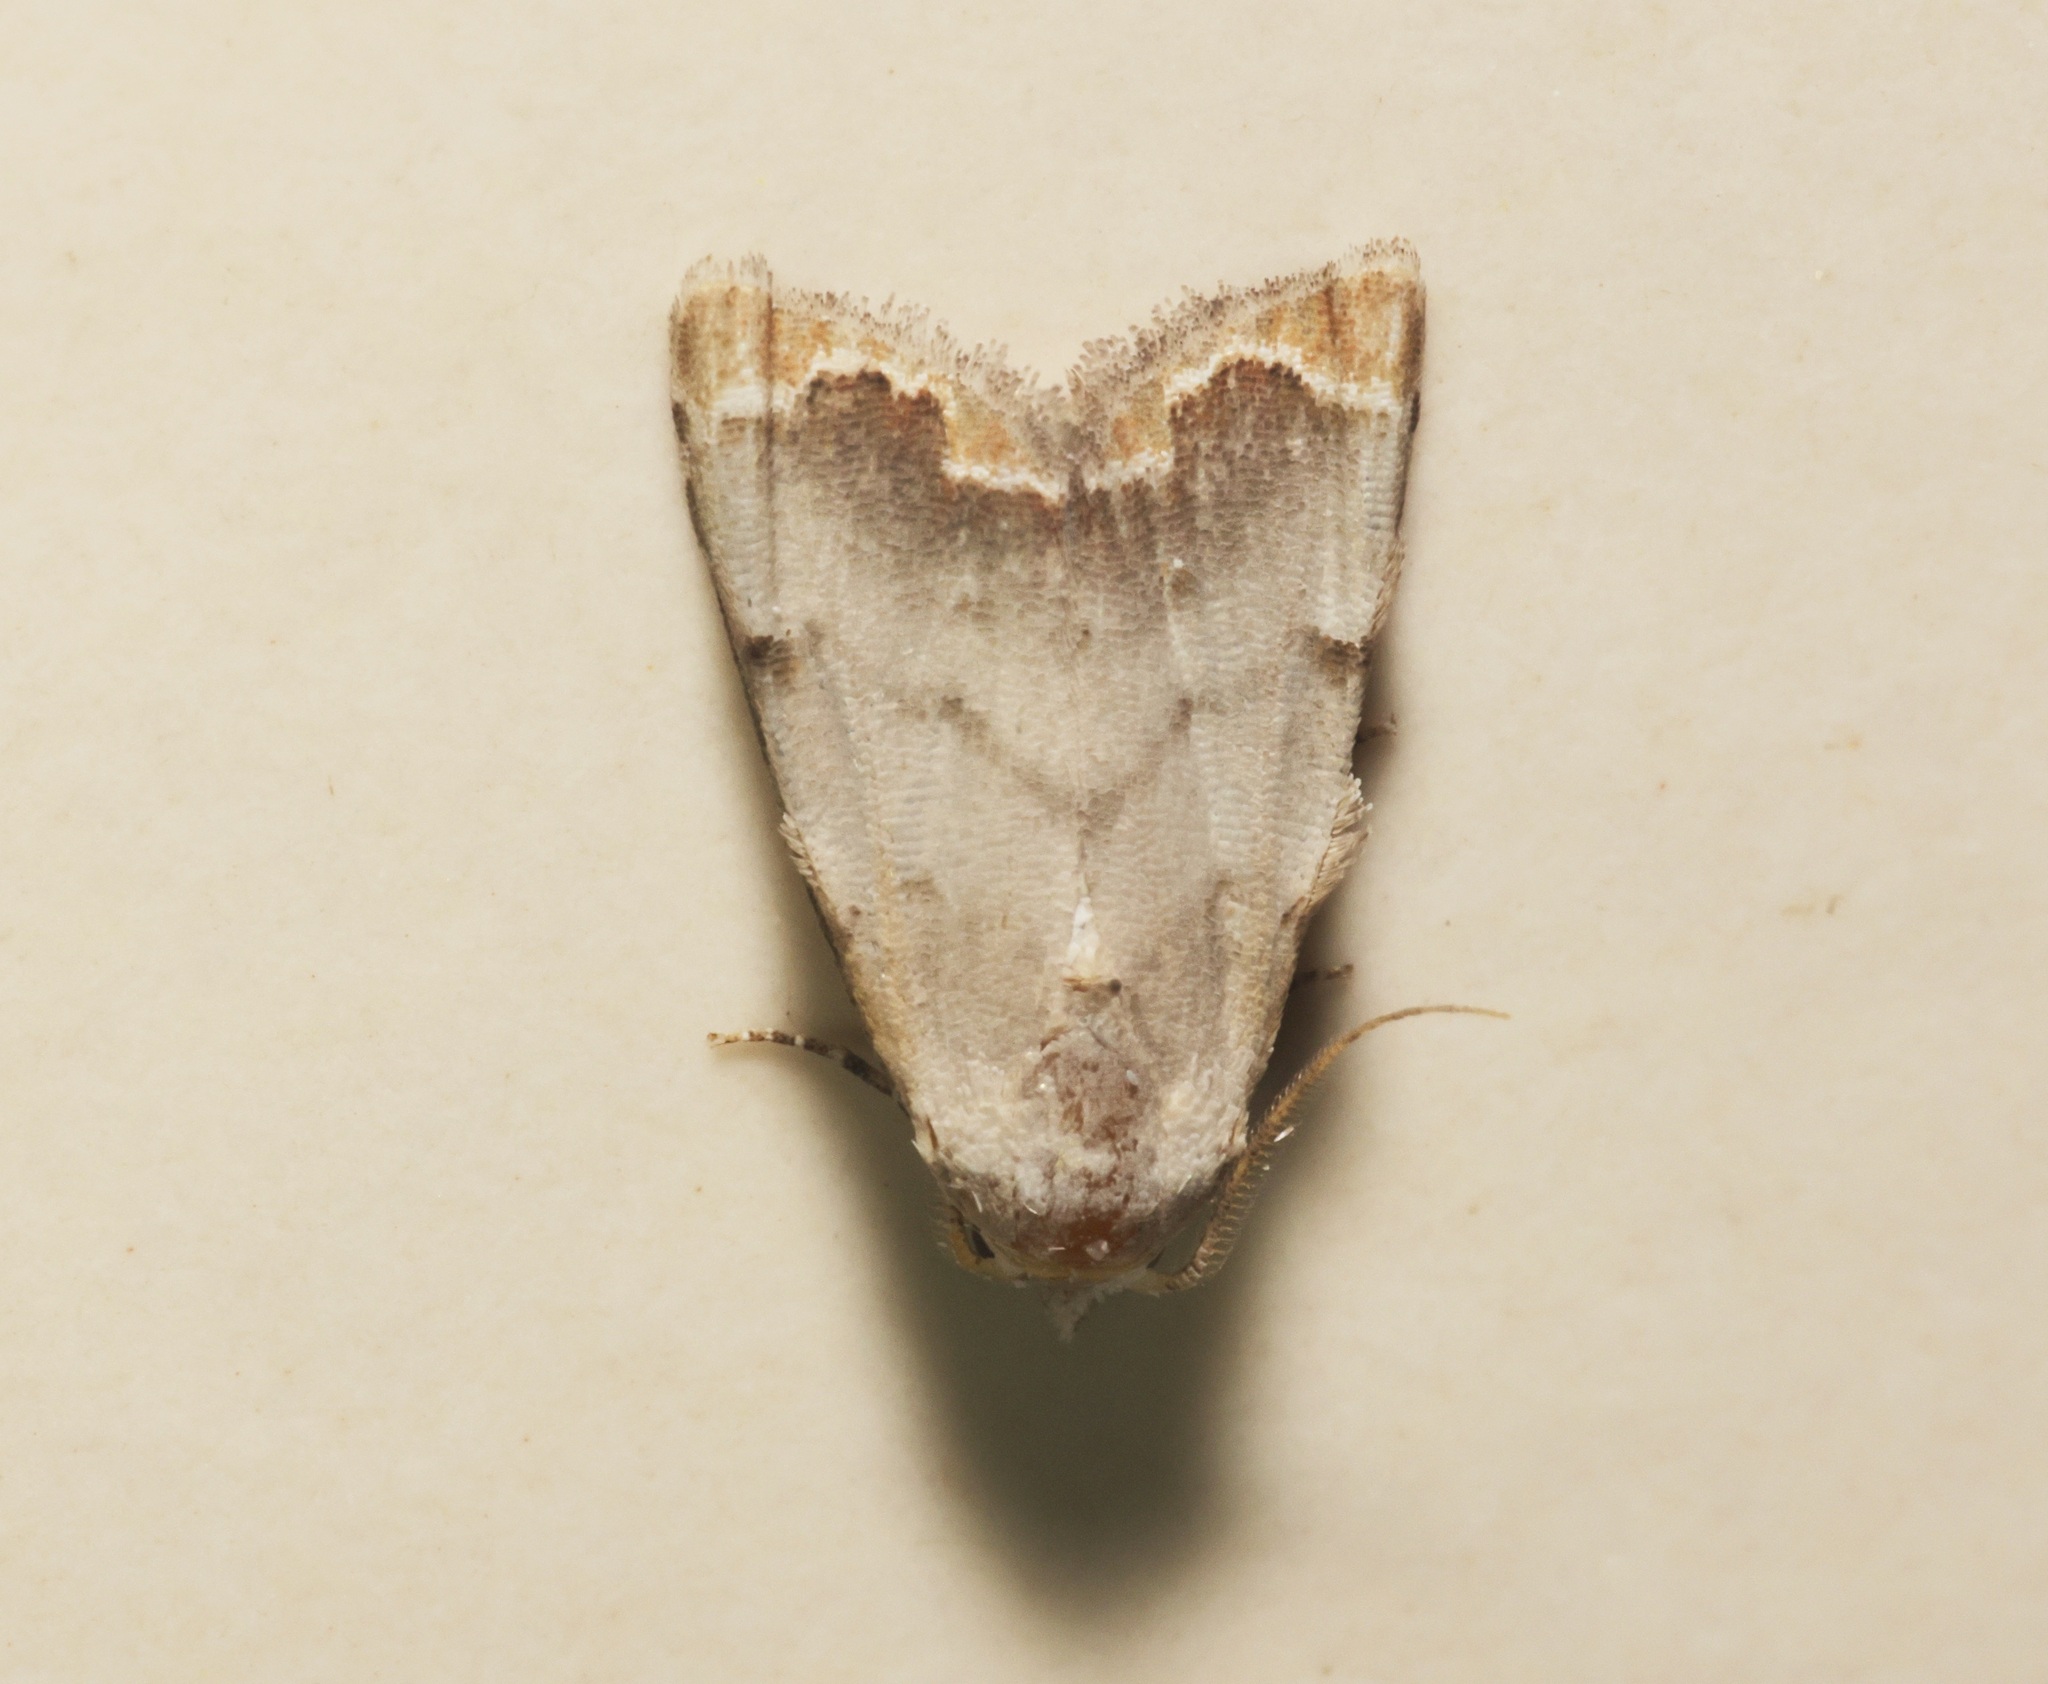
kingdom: Animalia
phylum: Arthropoda
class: Insecta
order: Lepidoptera
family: Nolidae
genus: Nola
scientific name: Nola marginata
